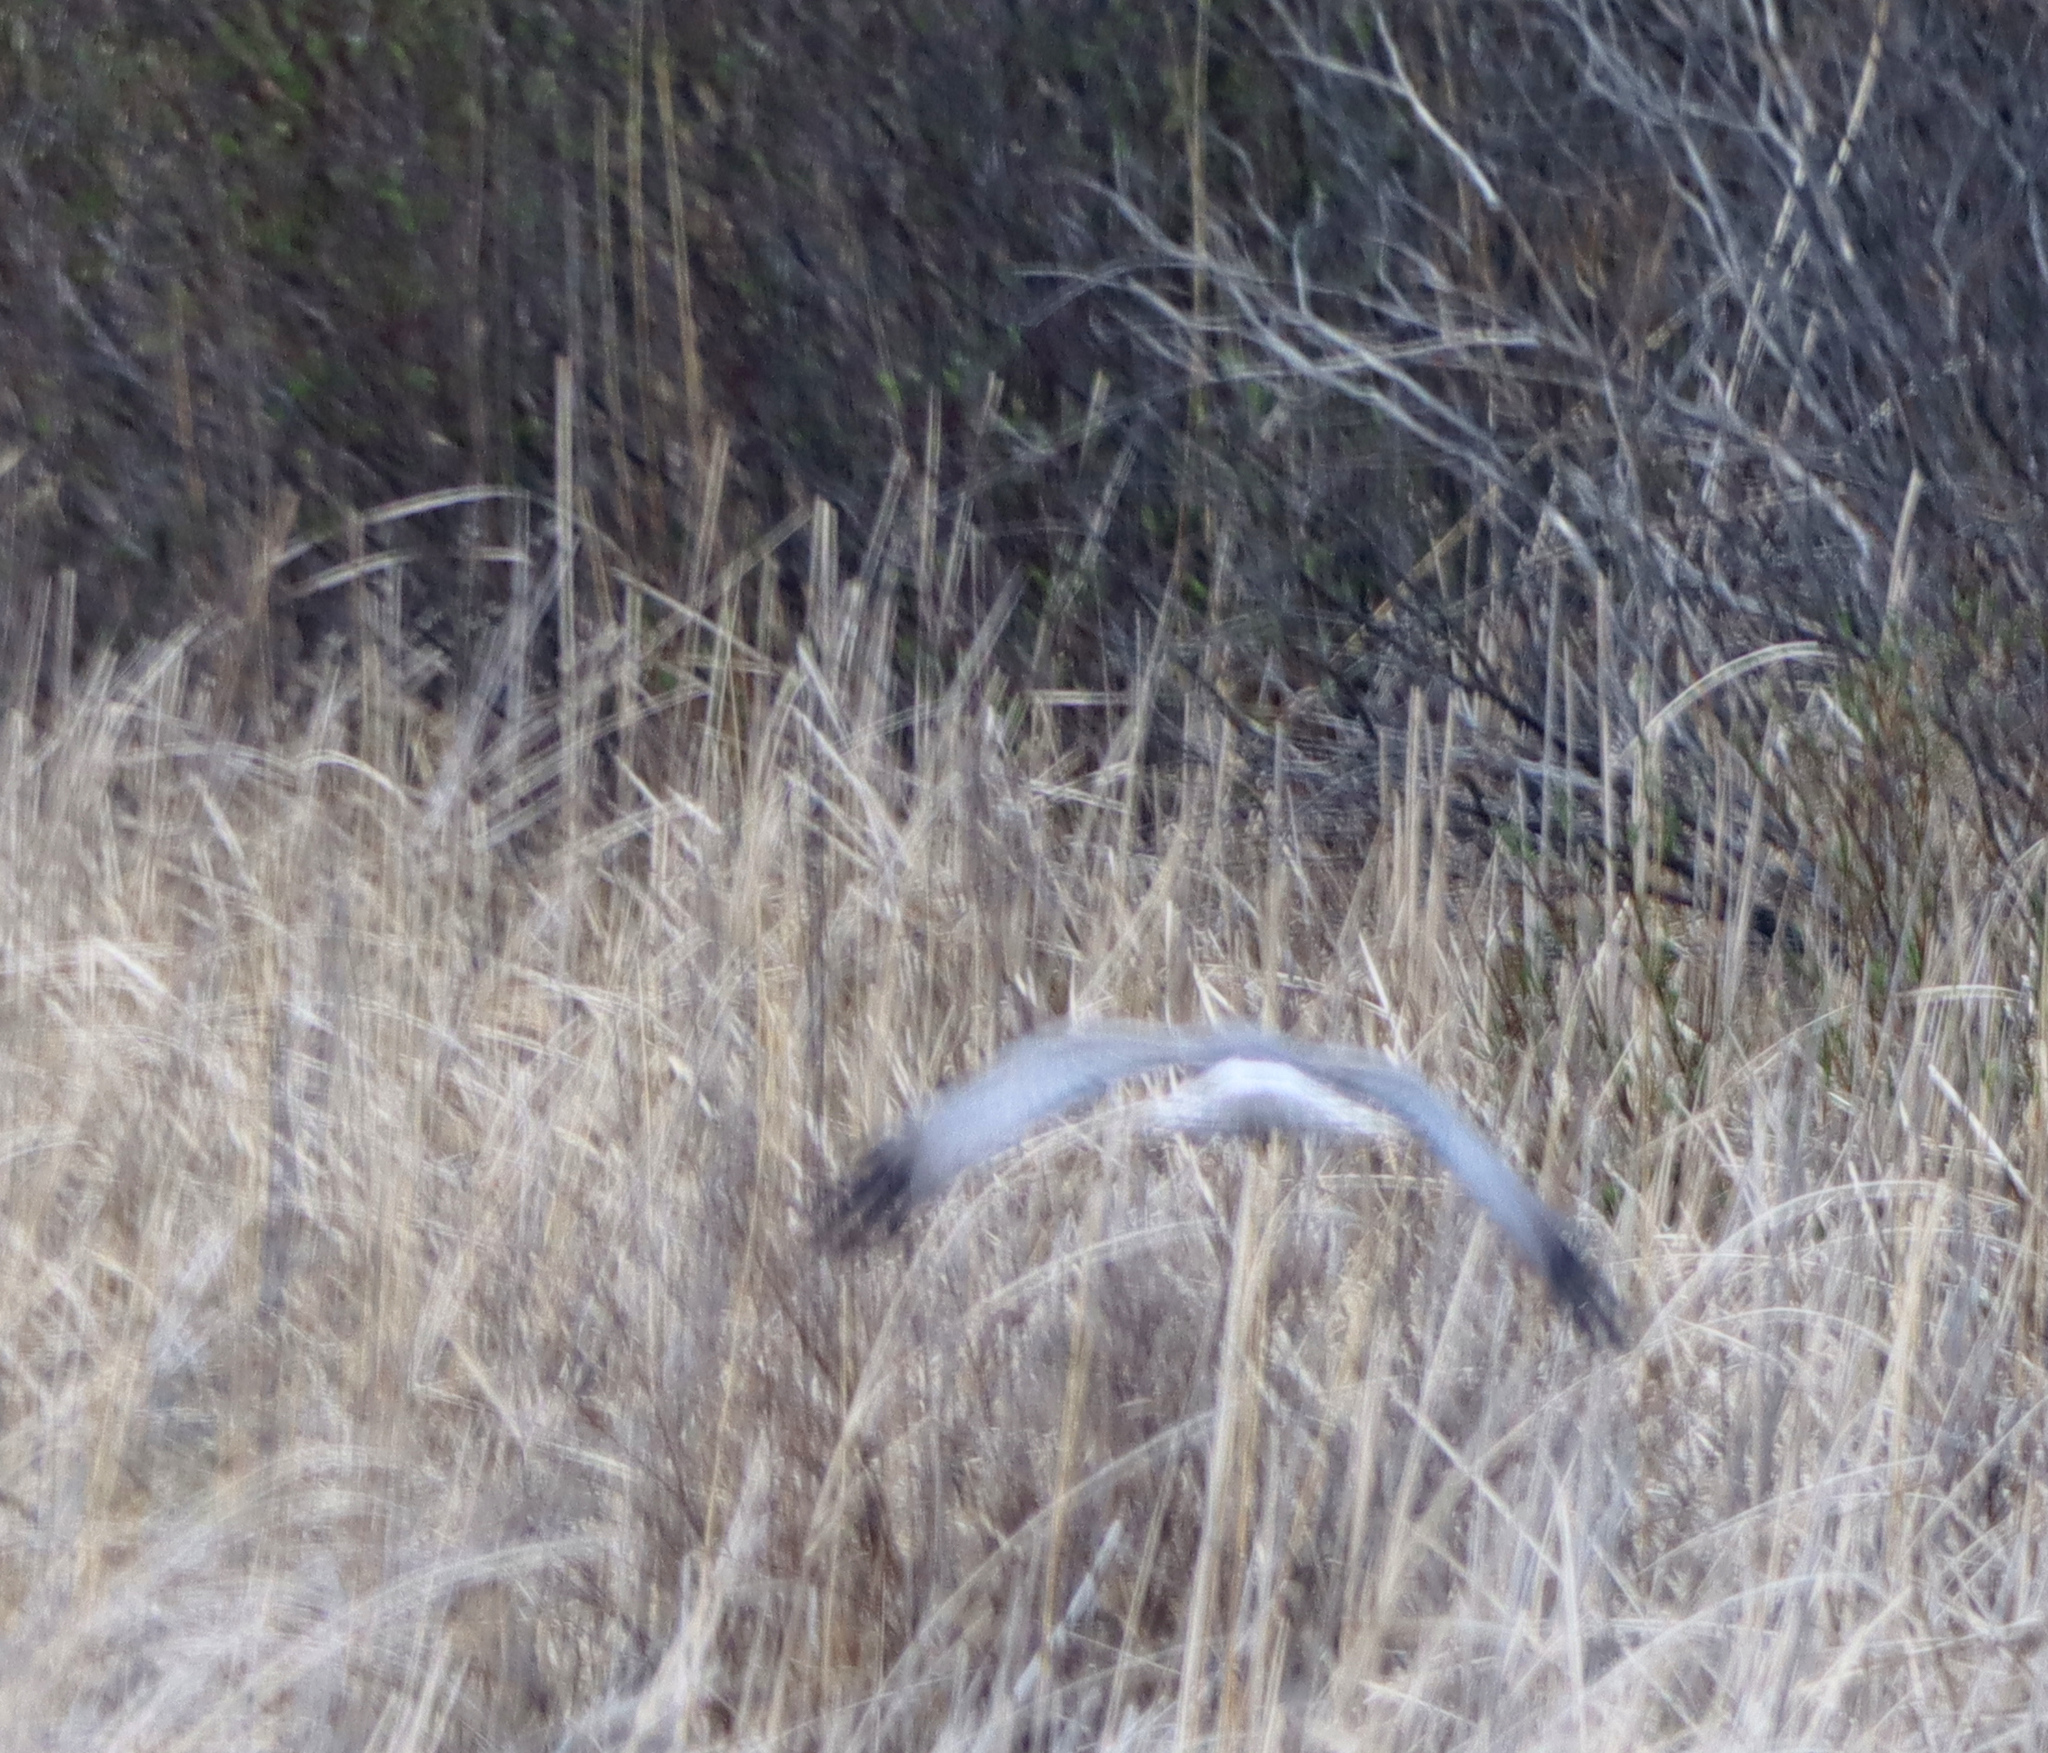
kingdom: Animalia
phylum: Chordata
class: Aves
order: Accipitriformes
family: Accipitridae
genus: Circus
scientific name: Circus cyaneus
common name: Hen harrier
